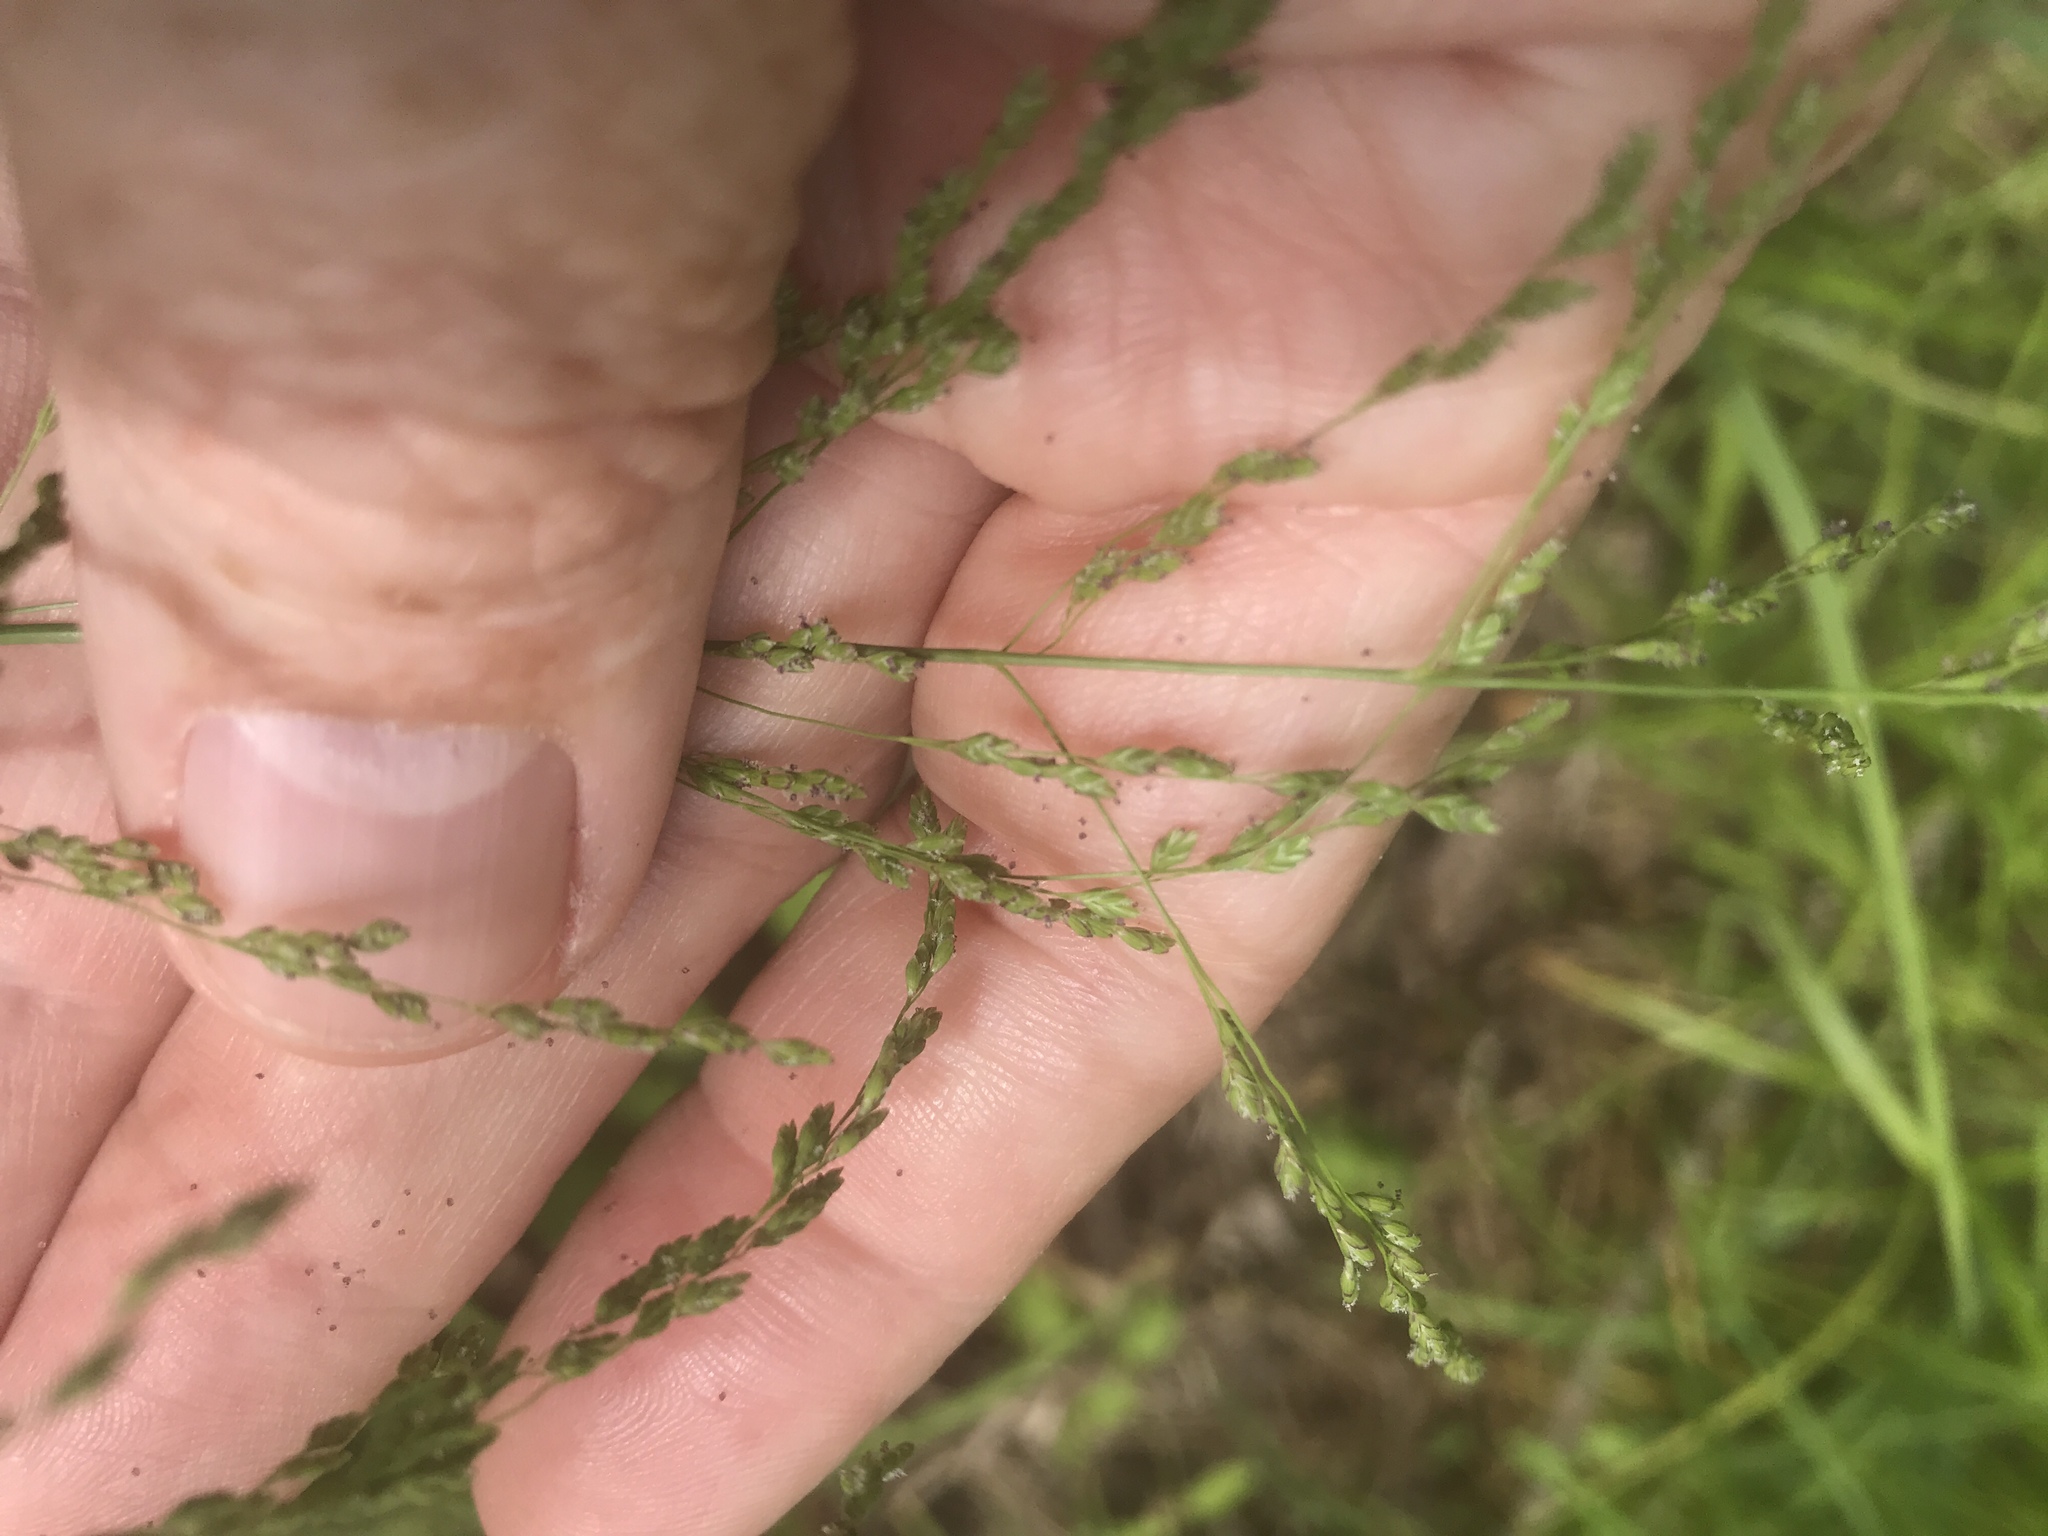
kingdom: Plantae
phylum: Tracheophyta
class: Liliopsida
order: Poales
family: Poaceae
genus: Glyceria
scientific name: Glyceria striata
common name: Fowl manna grass
